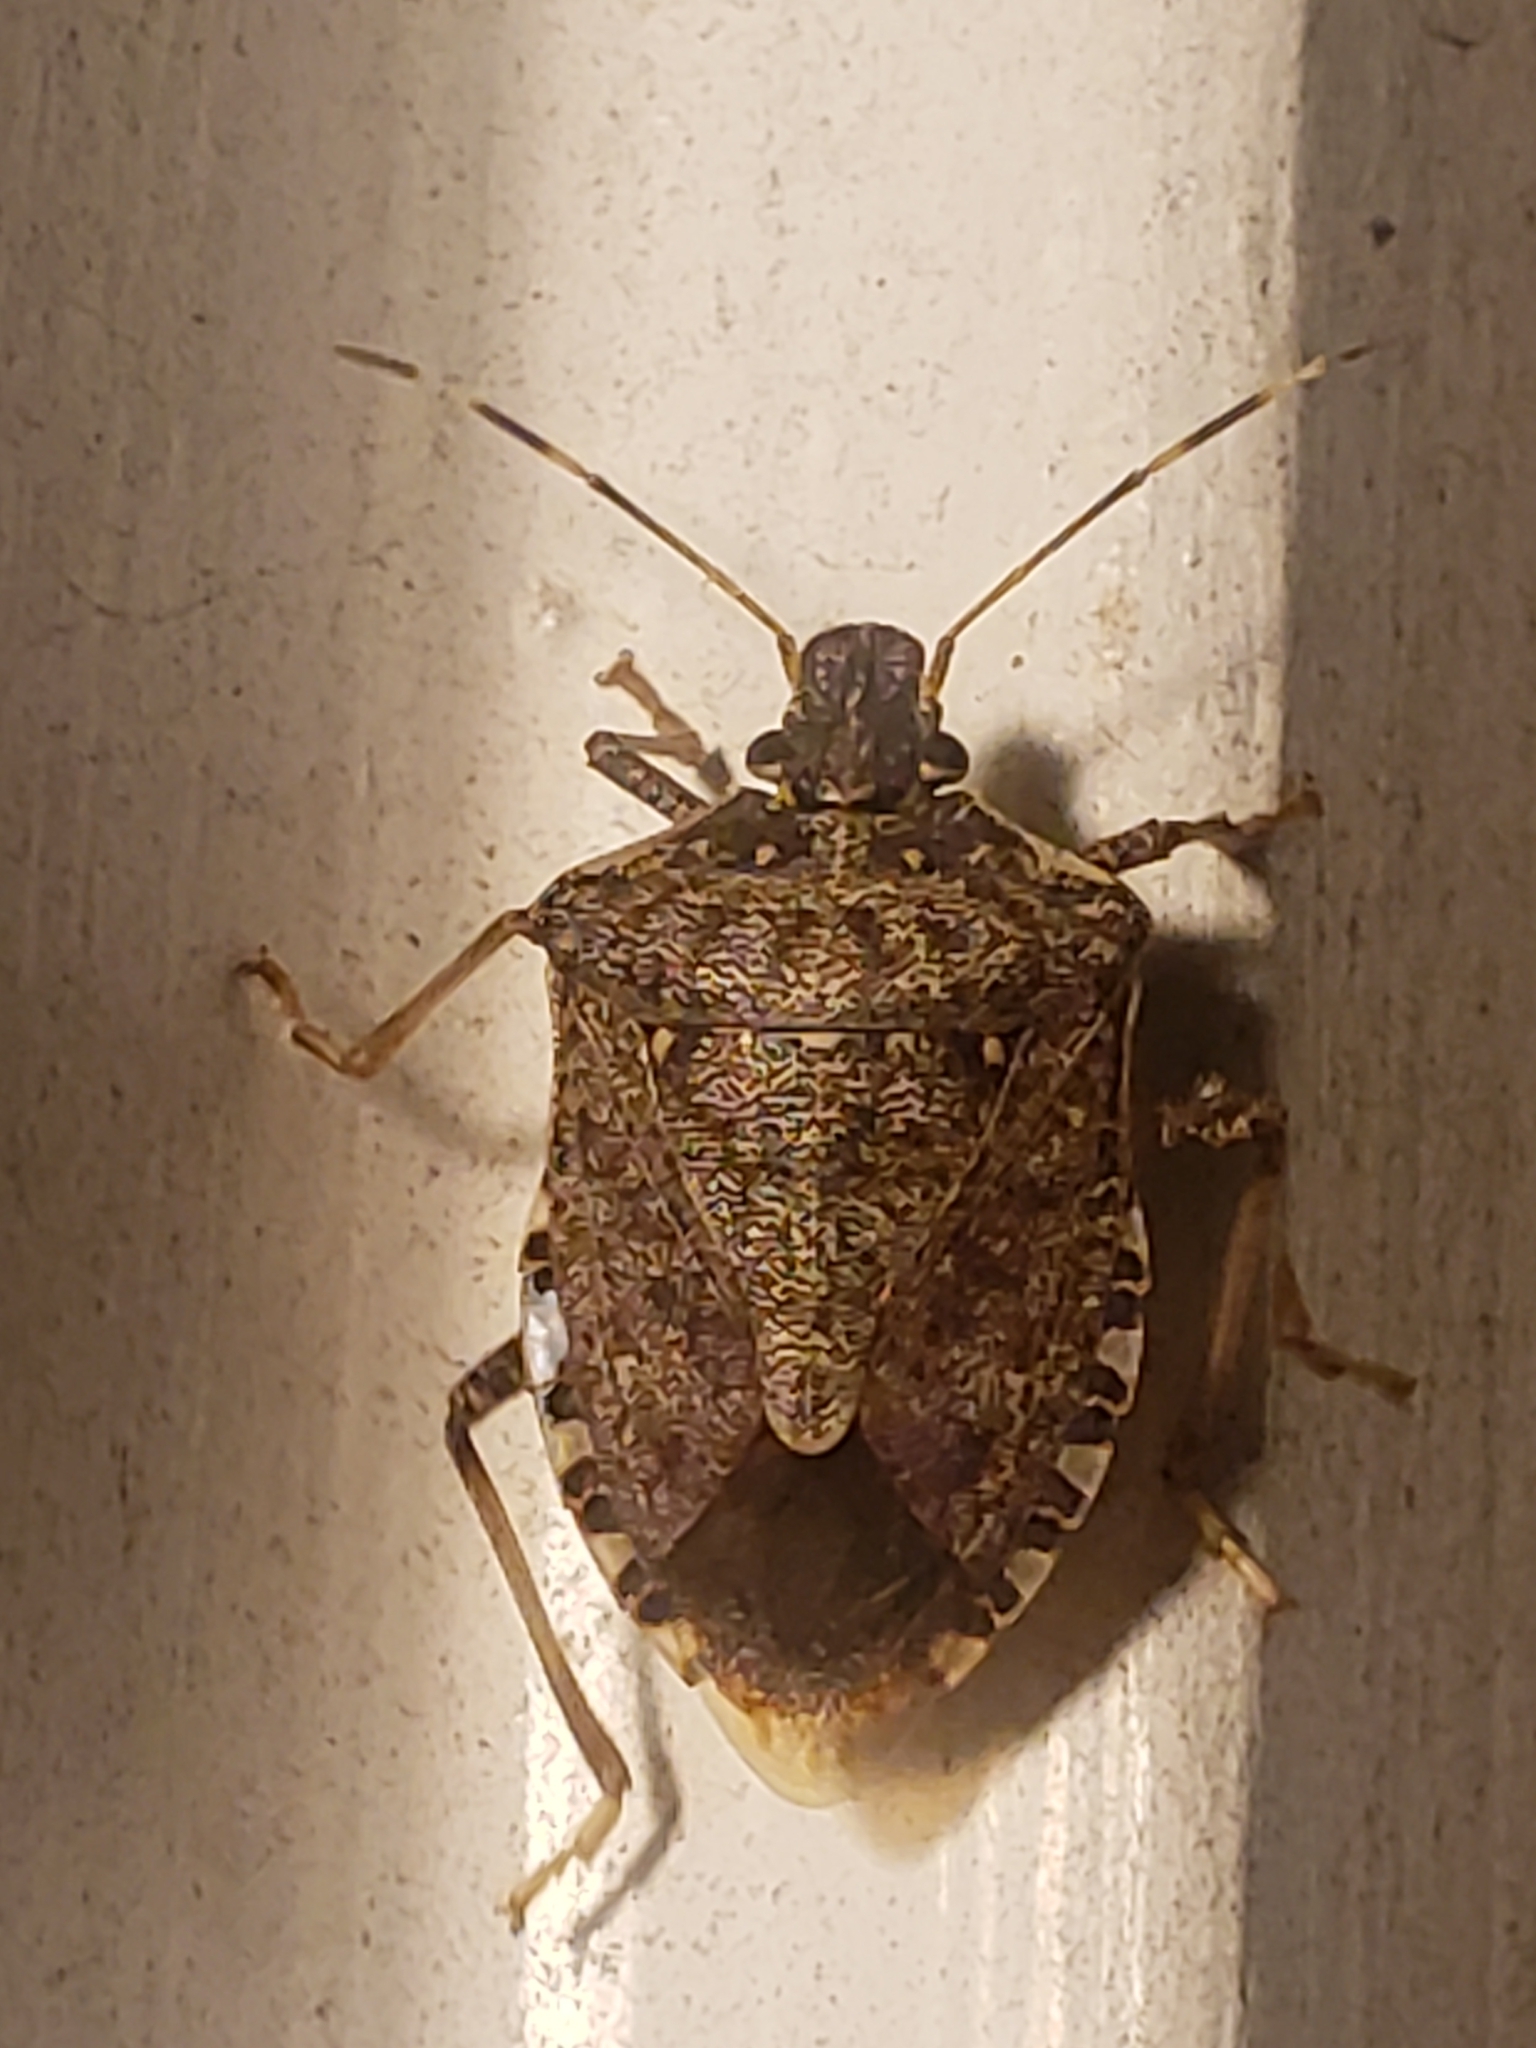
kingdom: Animalia
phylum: Arthropoda
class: Insecta
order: Hemiptera
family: Pentatomidae
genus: Halyomorpha
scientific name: Halyomorpha halys
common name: Brown marmorated stink bug
